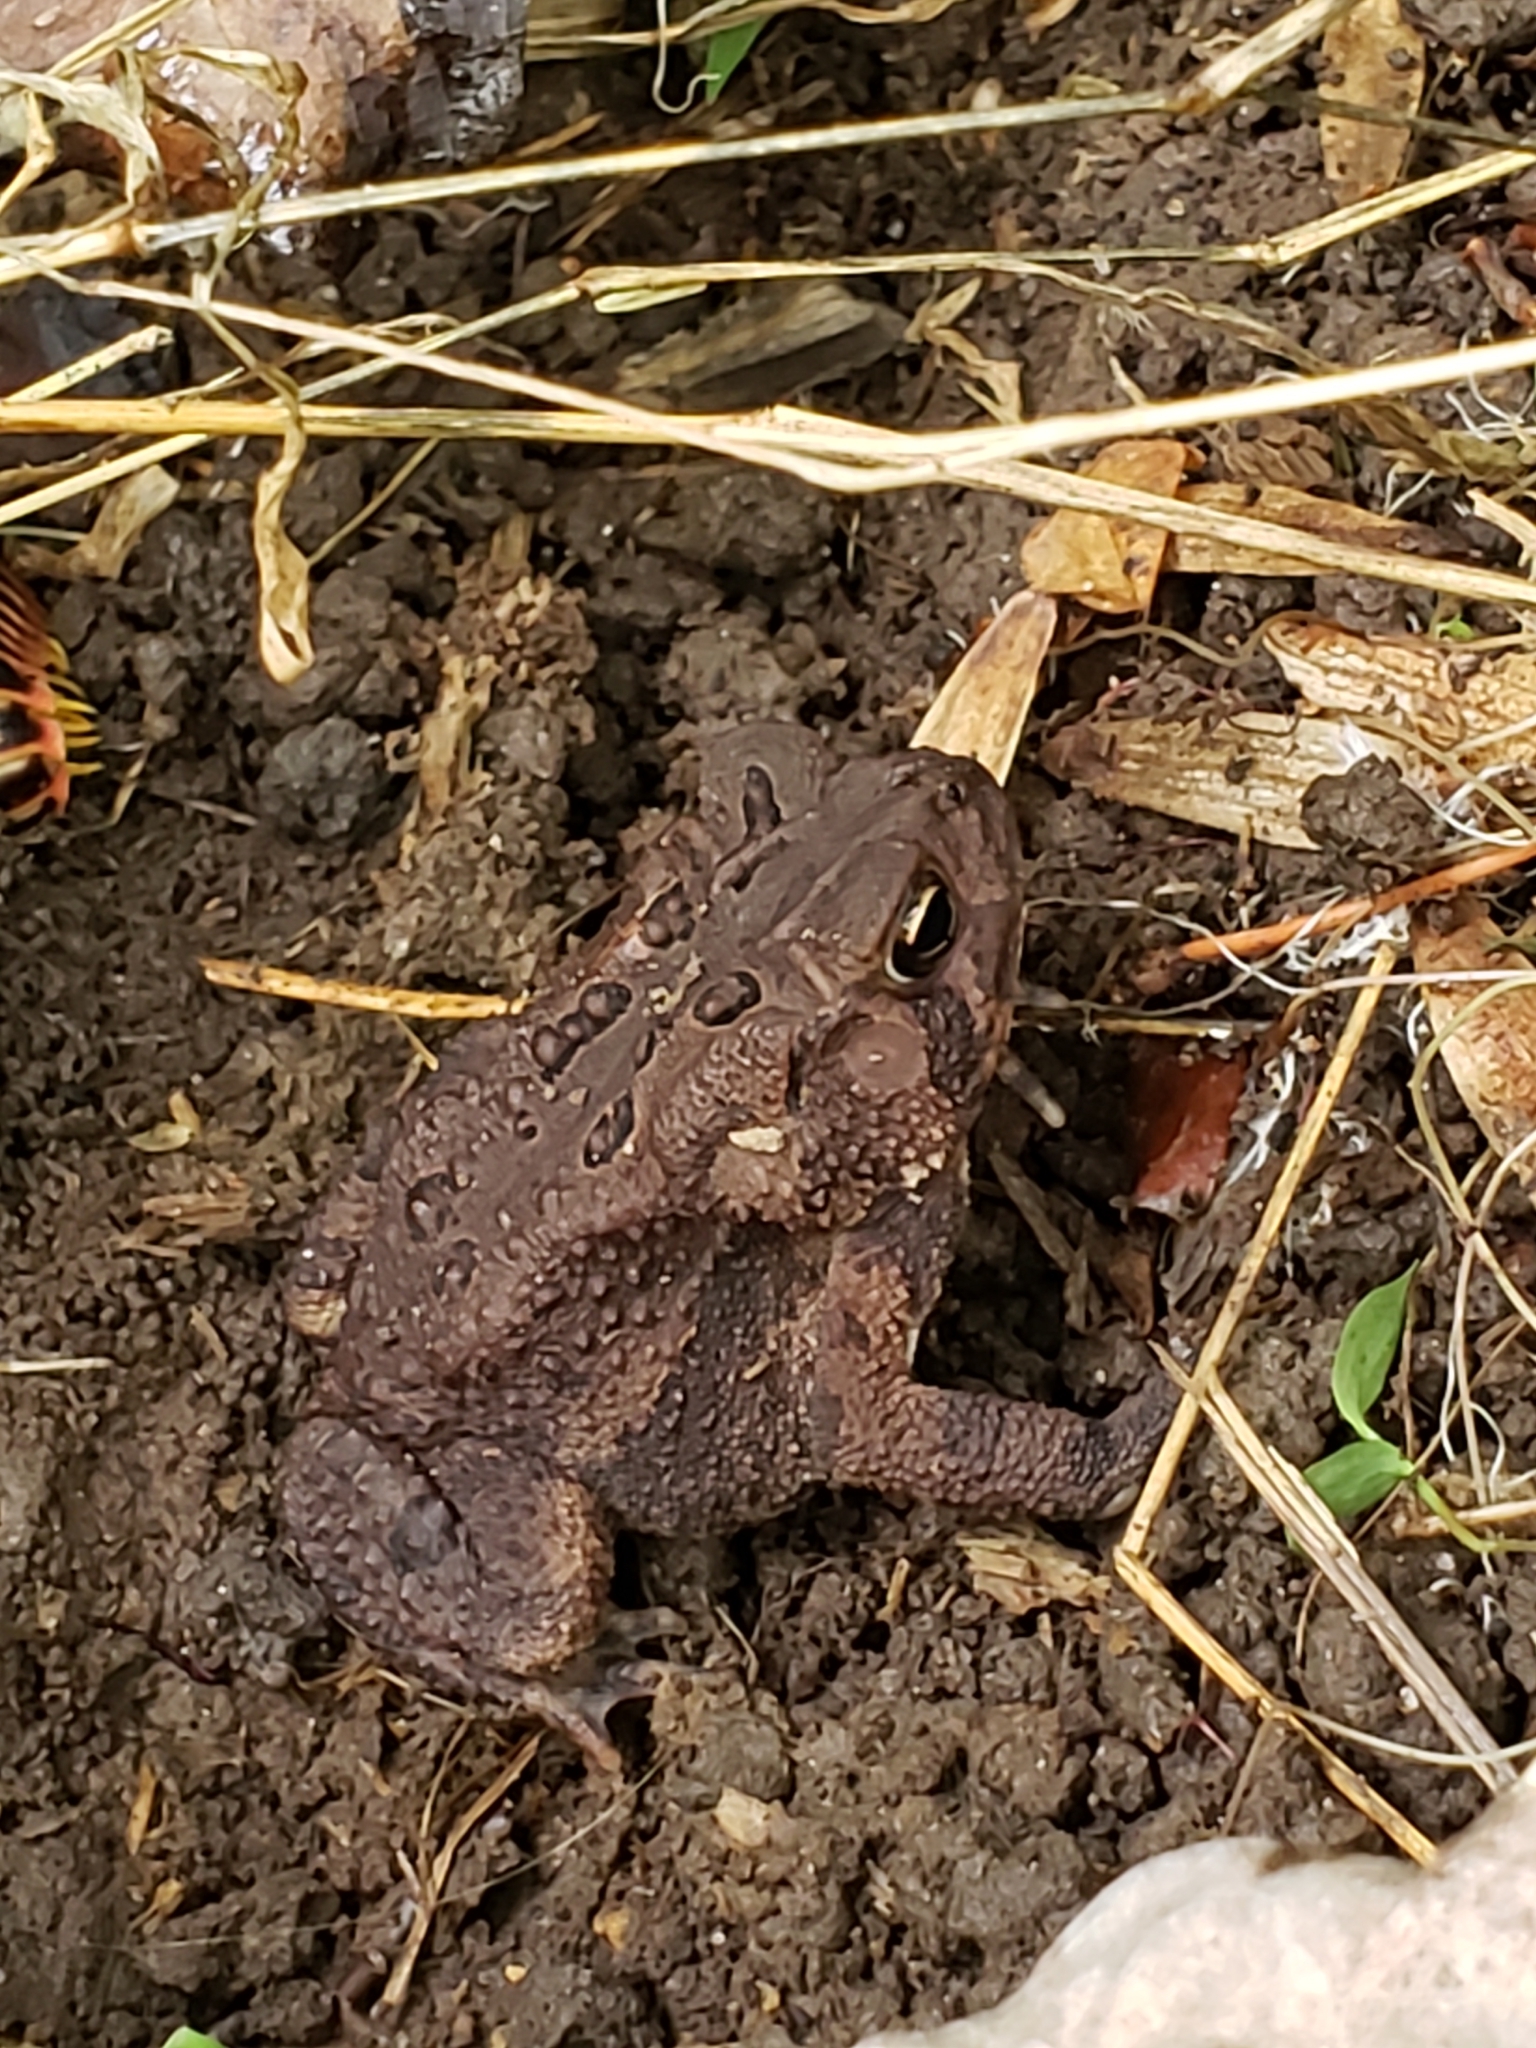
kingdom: Animalia
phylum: Chordata
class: Amphibia
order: Anura
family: Bufonidae
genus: Anaxyrus
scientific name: Anaxyrus americanus
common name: American toad
